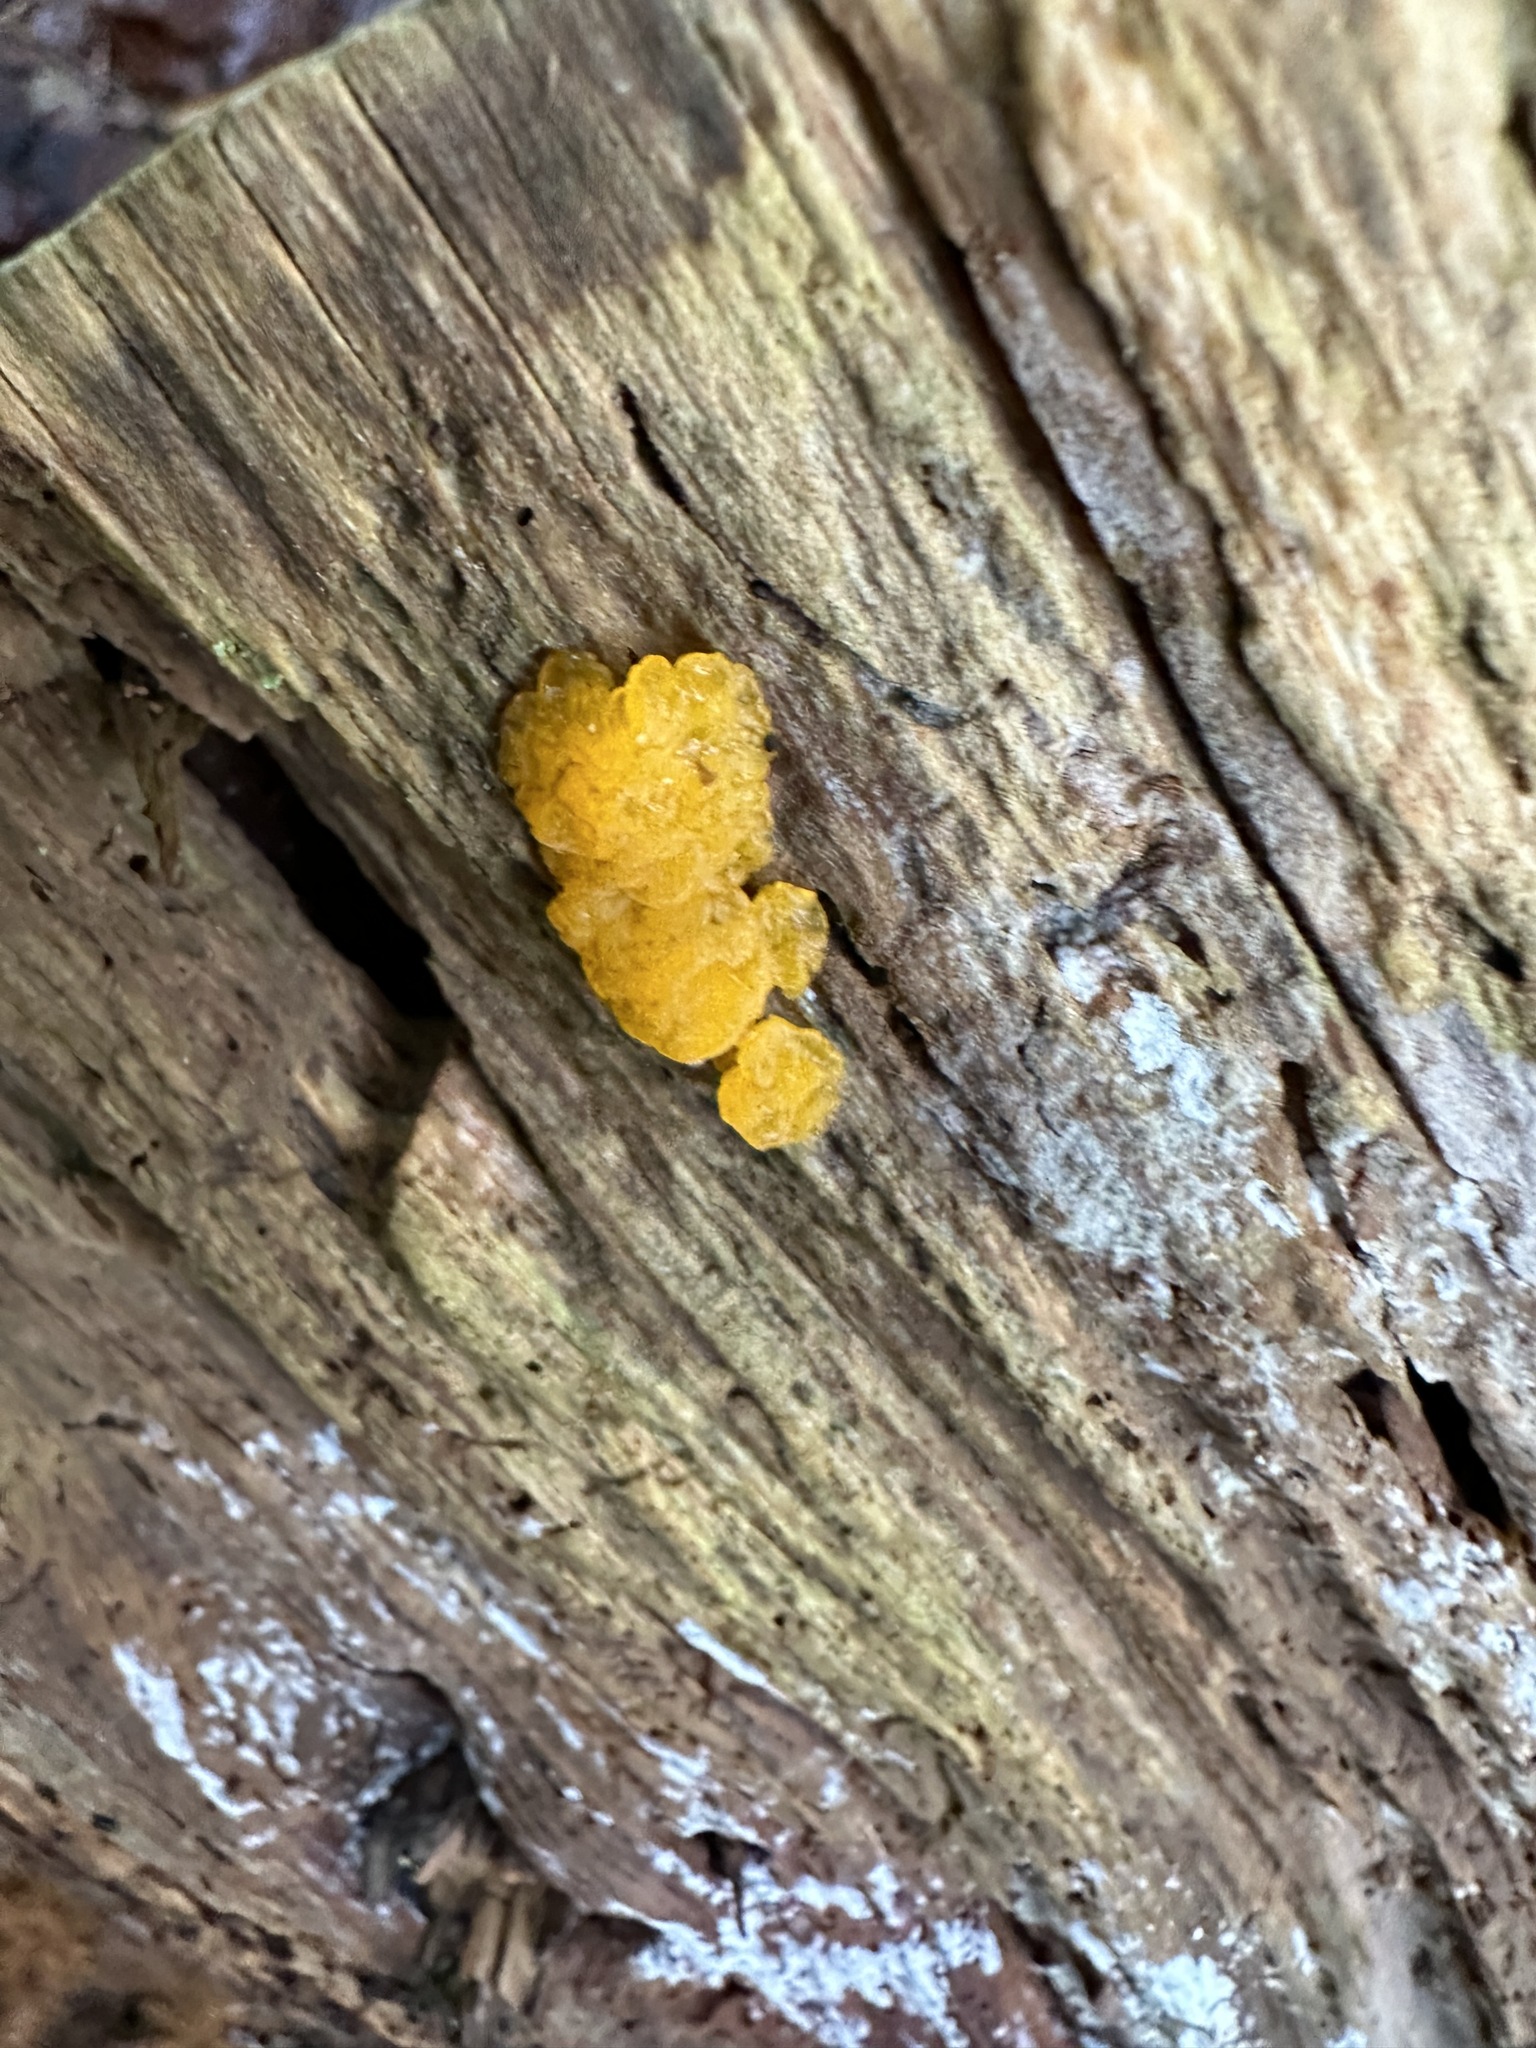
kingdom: Fungi
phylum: Basidiomycota
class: Dacrymycetes
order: Dacrymycetales
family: Dacrymycetaceae
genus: Dacrymyces
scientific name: Dacrymyces chrysospermus
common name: Orange jelly spot
